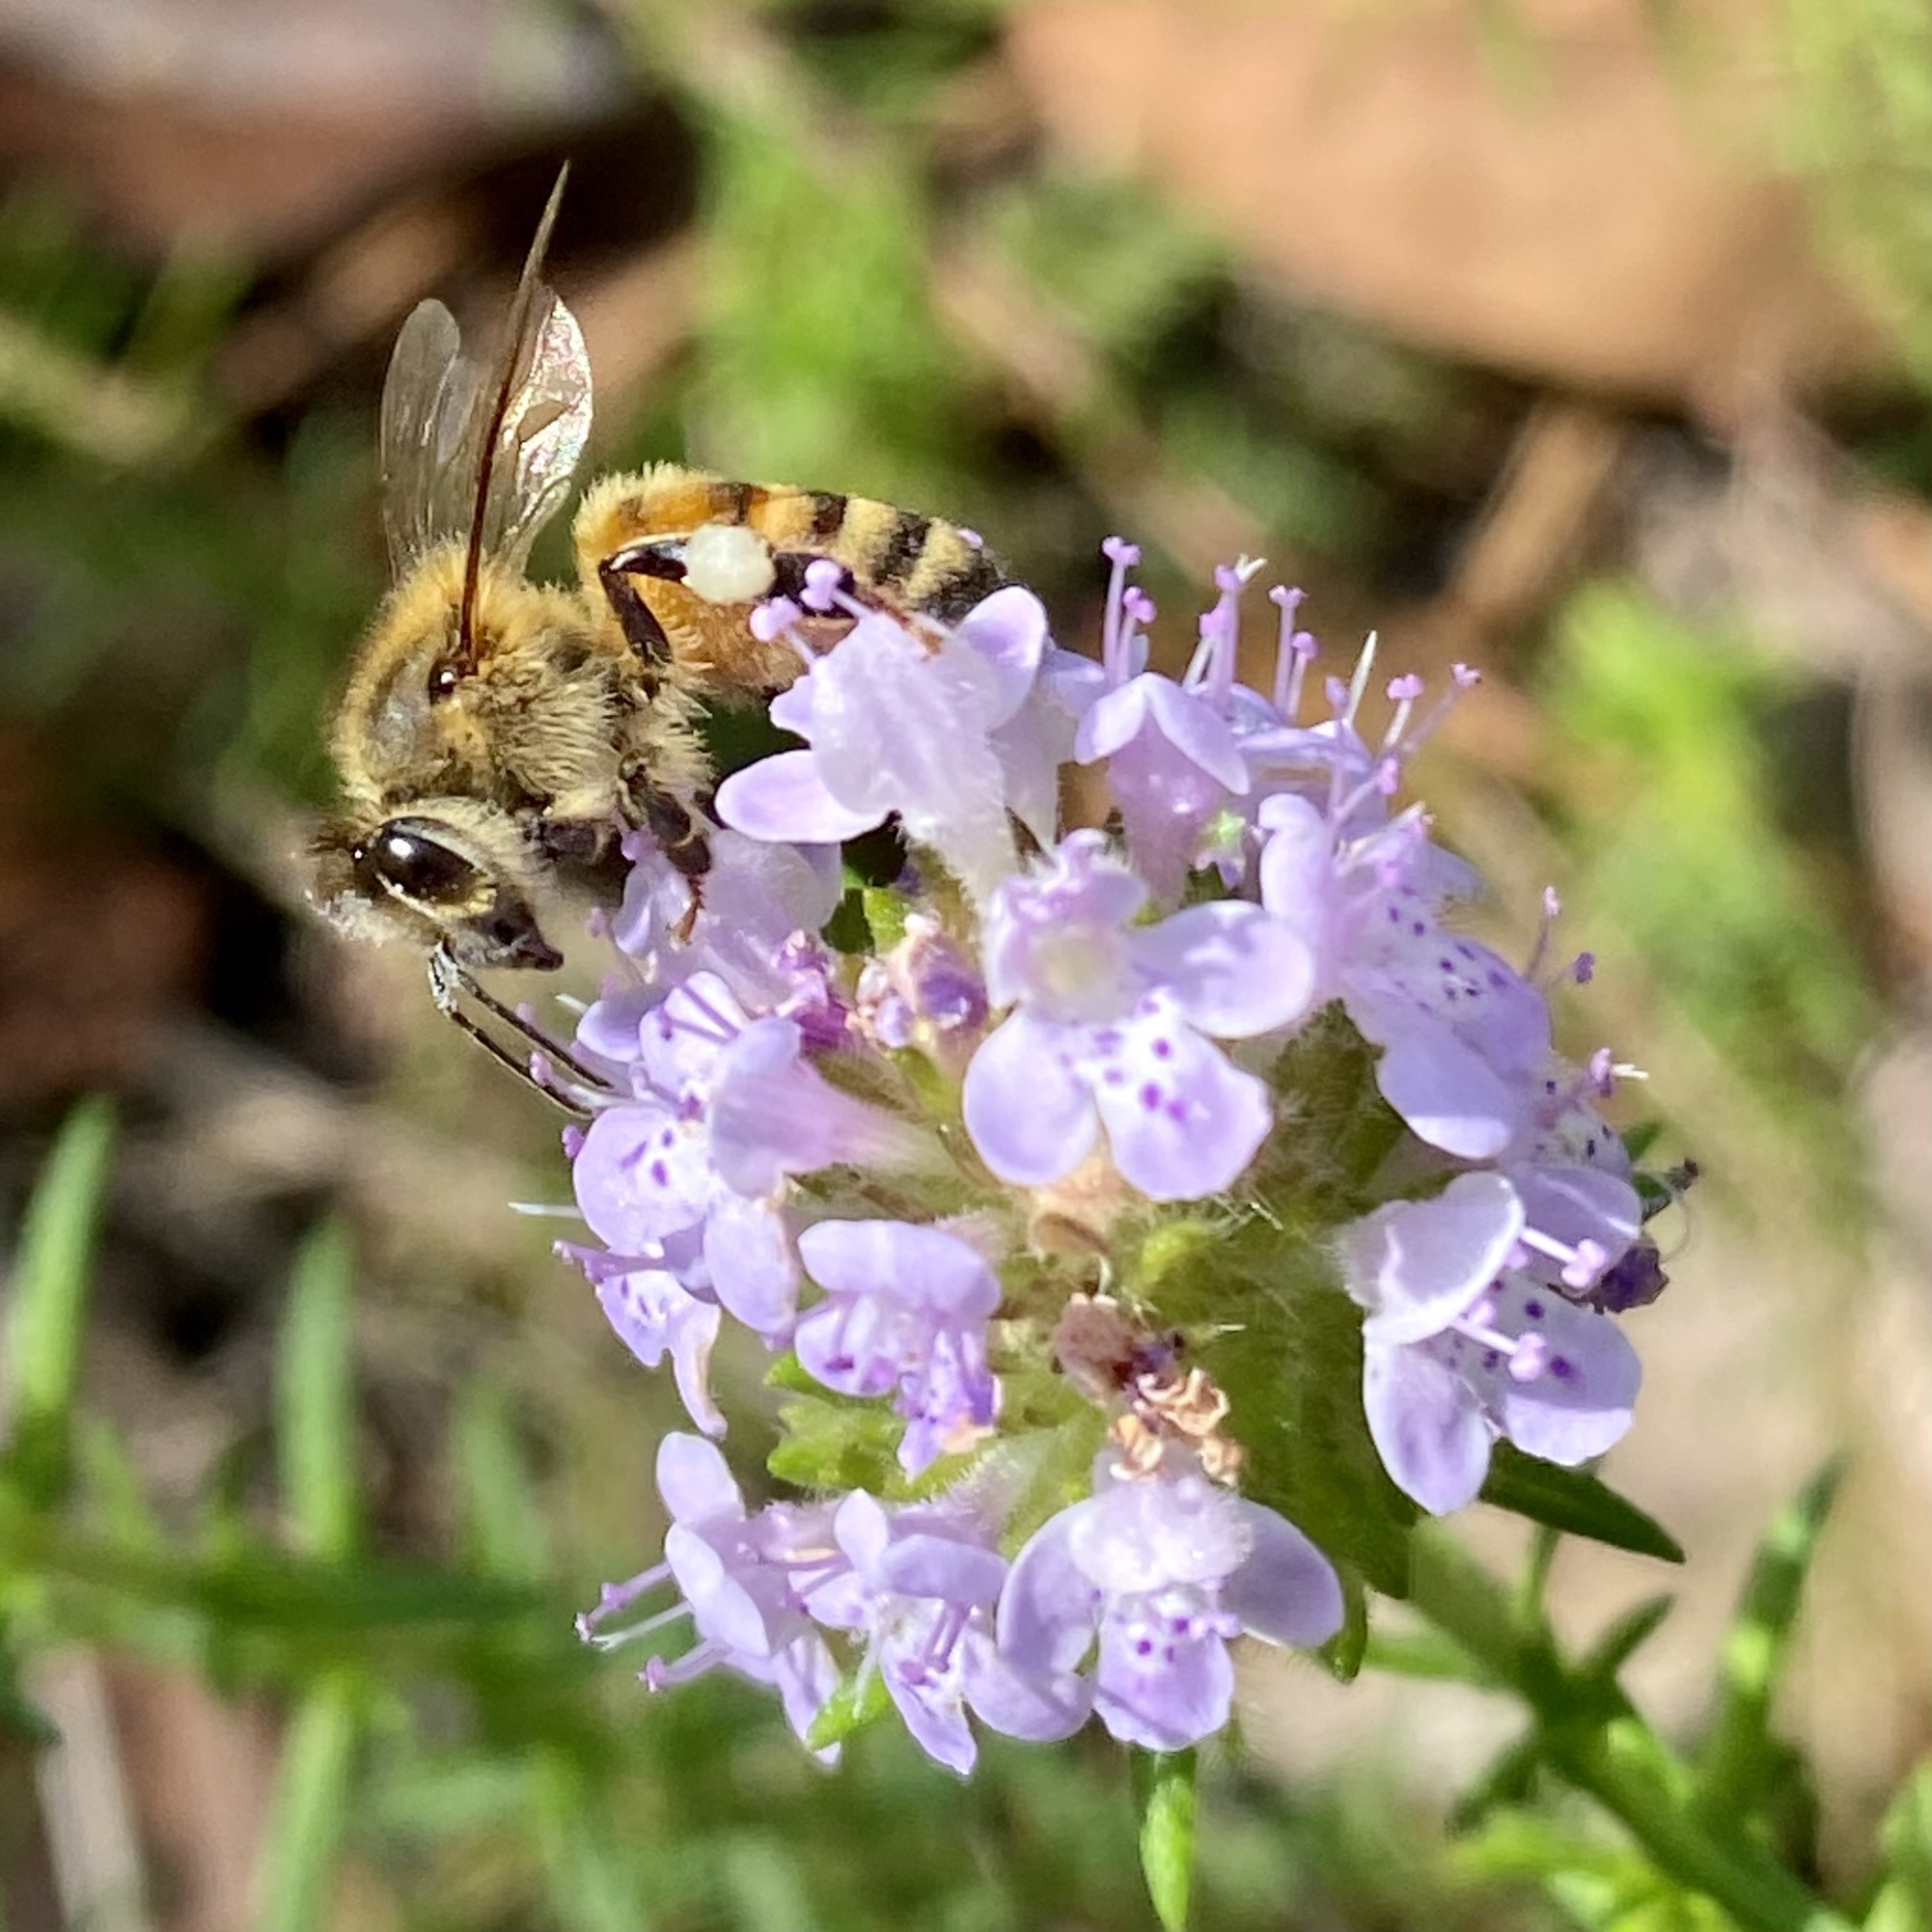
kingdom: Animalia
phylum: Arthropoda
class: Insecta
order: Hymenoptera
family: Apidae
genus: Apis
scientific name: Apis mellifera
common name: Honey bee
